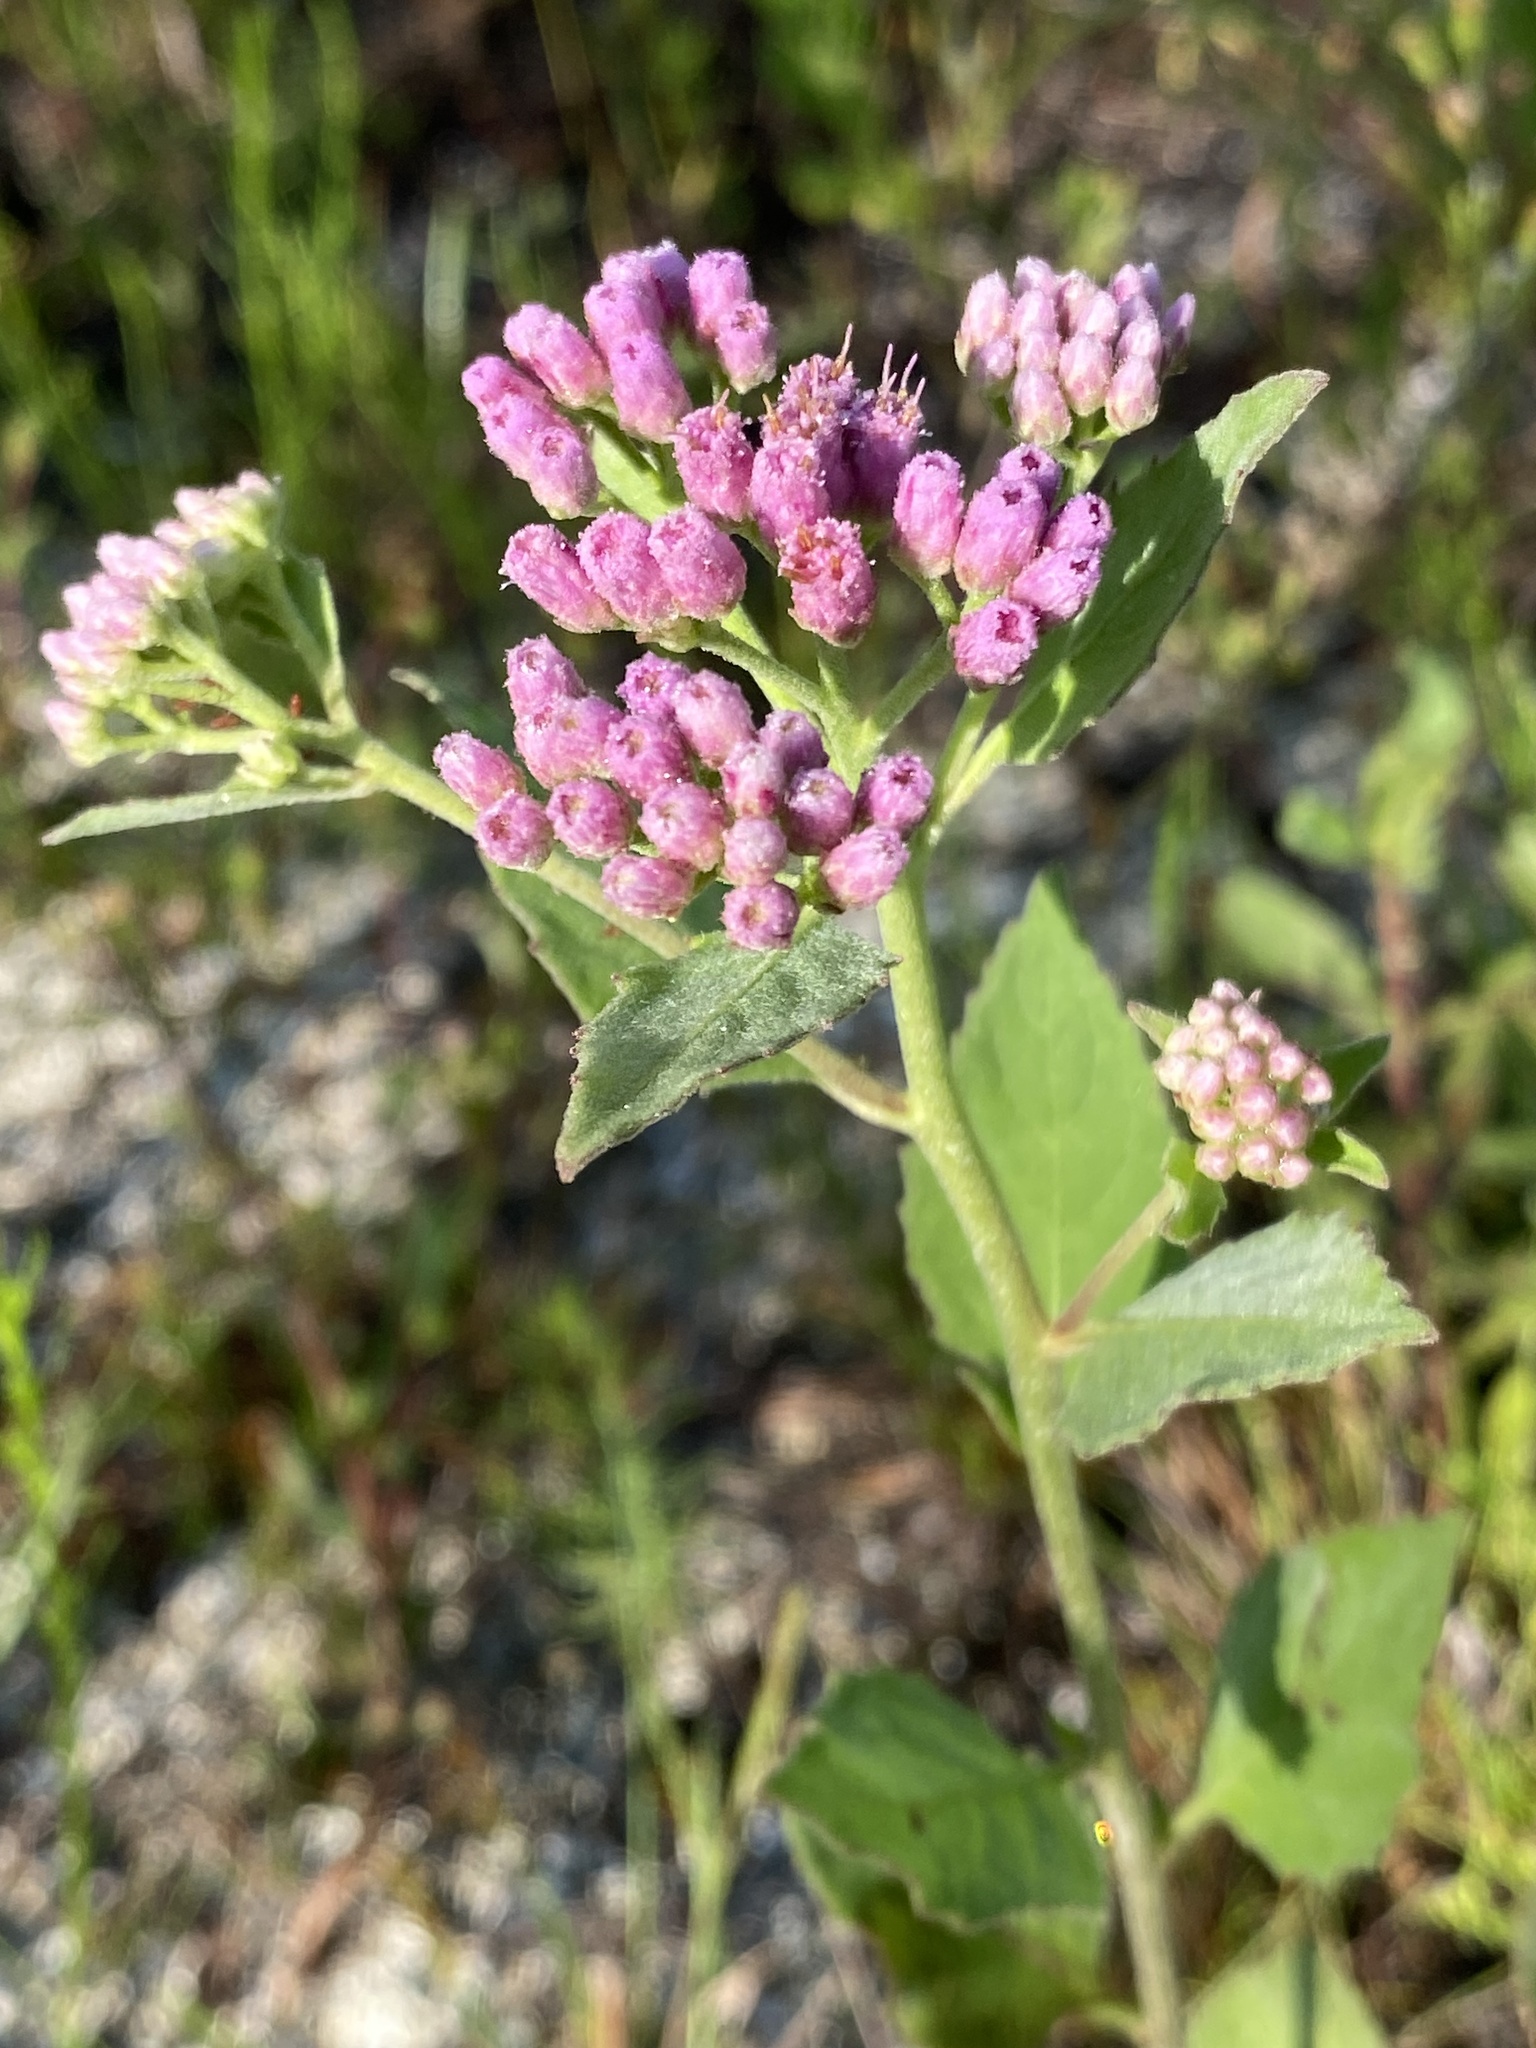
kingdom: Plantae
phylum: Tracheophyta
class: Magnoliopsida
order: Asterales
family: Asteraceae
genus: Pluchea
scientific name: Pluchea odorata
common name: Saltmarsh fleabane
